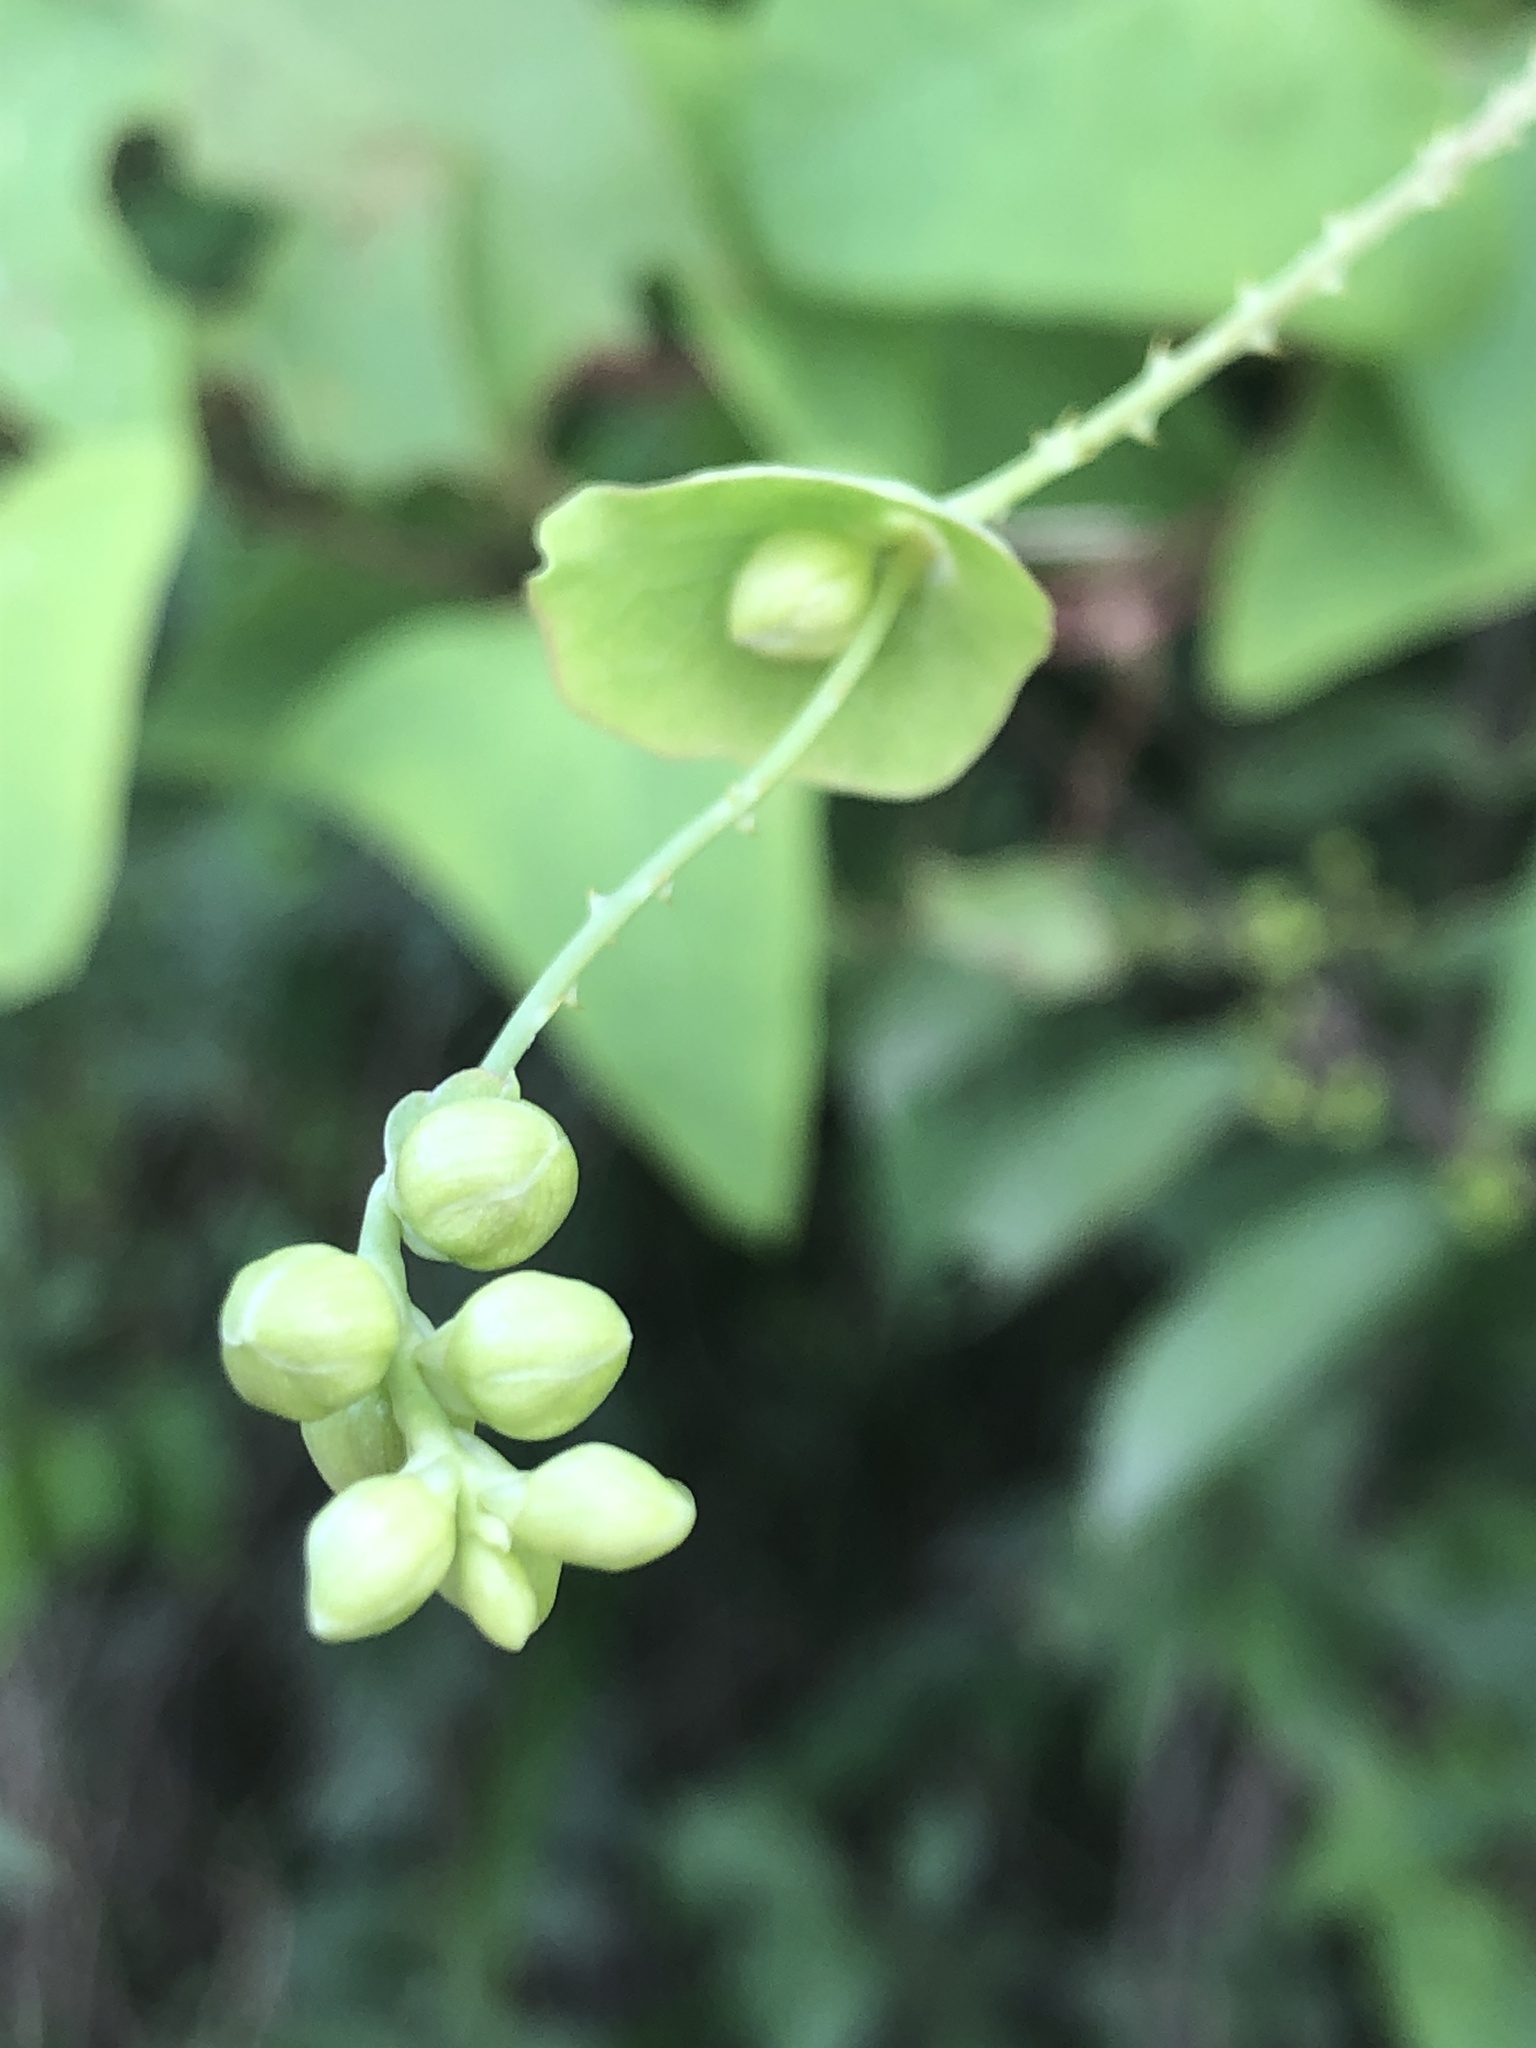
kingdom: Plantae
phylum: Tracheophyta
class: Magnoliopsida
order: Caryophyllales
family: Polygonaceae
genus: Persicaria
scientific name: Persicaria perfoliata
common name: Asiatic tearthumb
